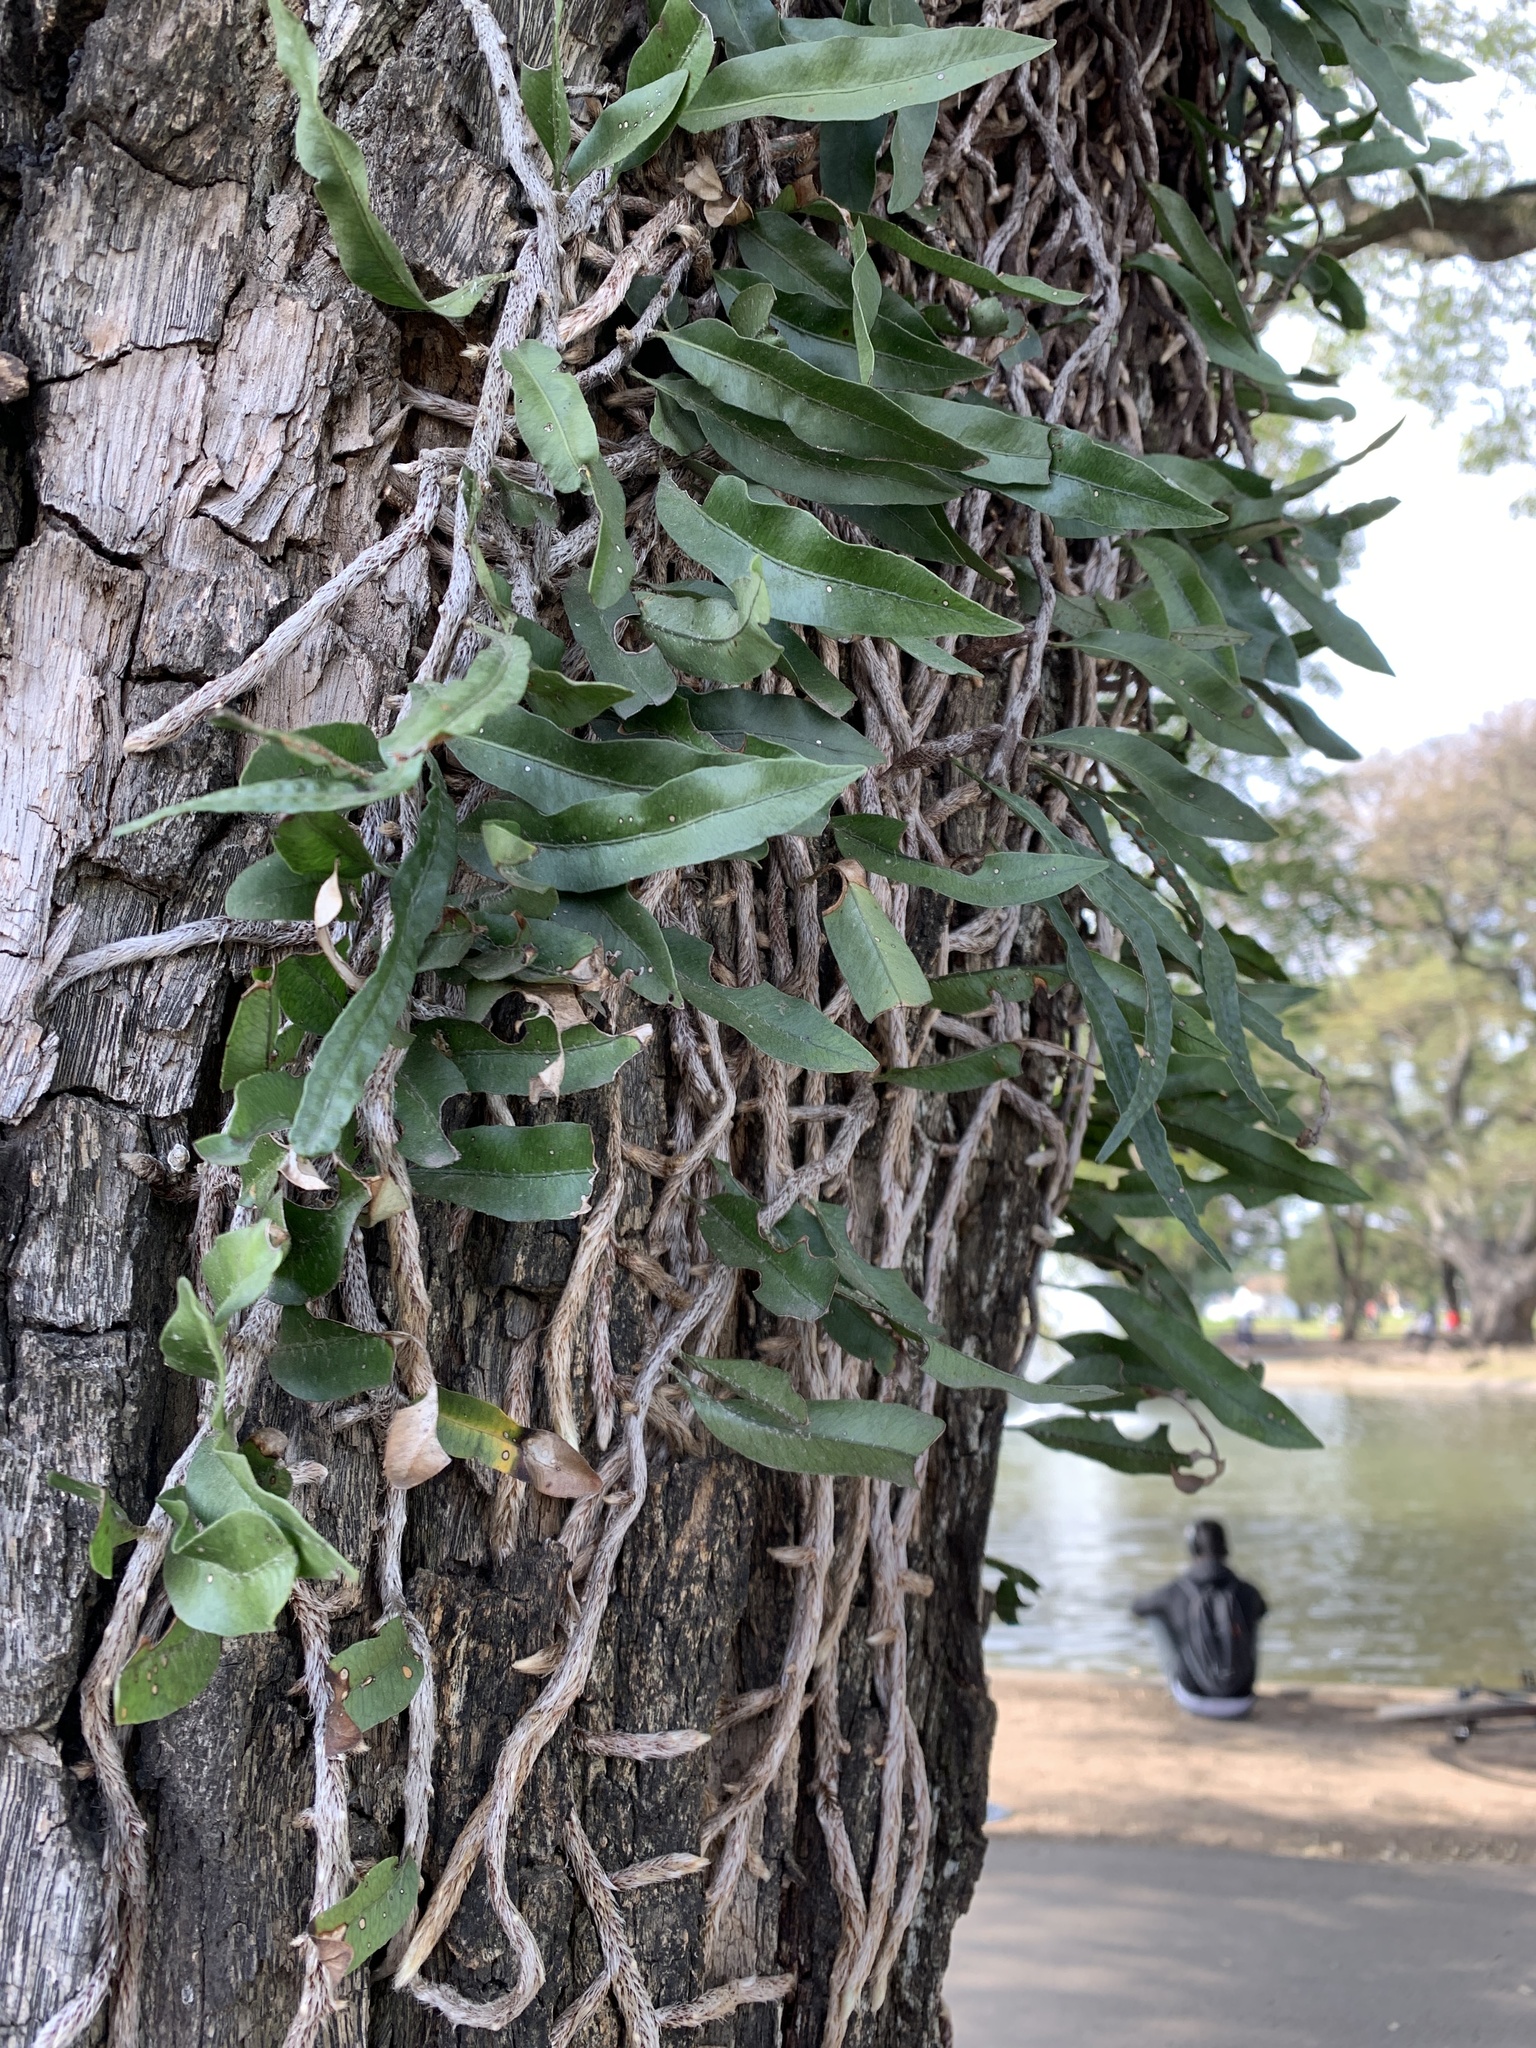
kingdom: Plantae
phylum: Tracheophyta
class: Polypodiopsida
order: Polypodiales
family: Polypodiaceae
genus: Microgramma
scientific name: Microgramma mortoniana
